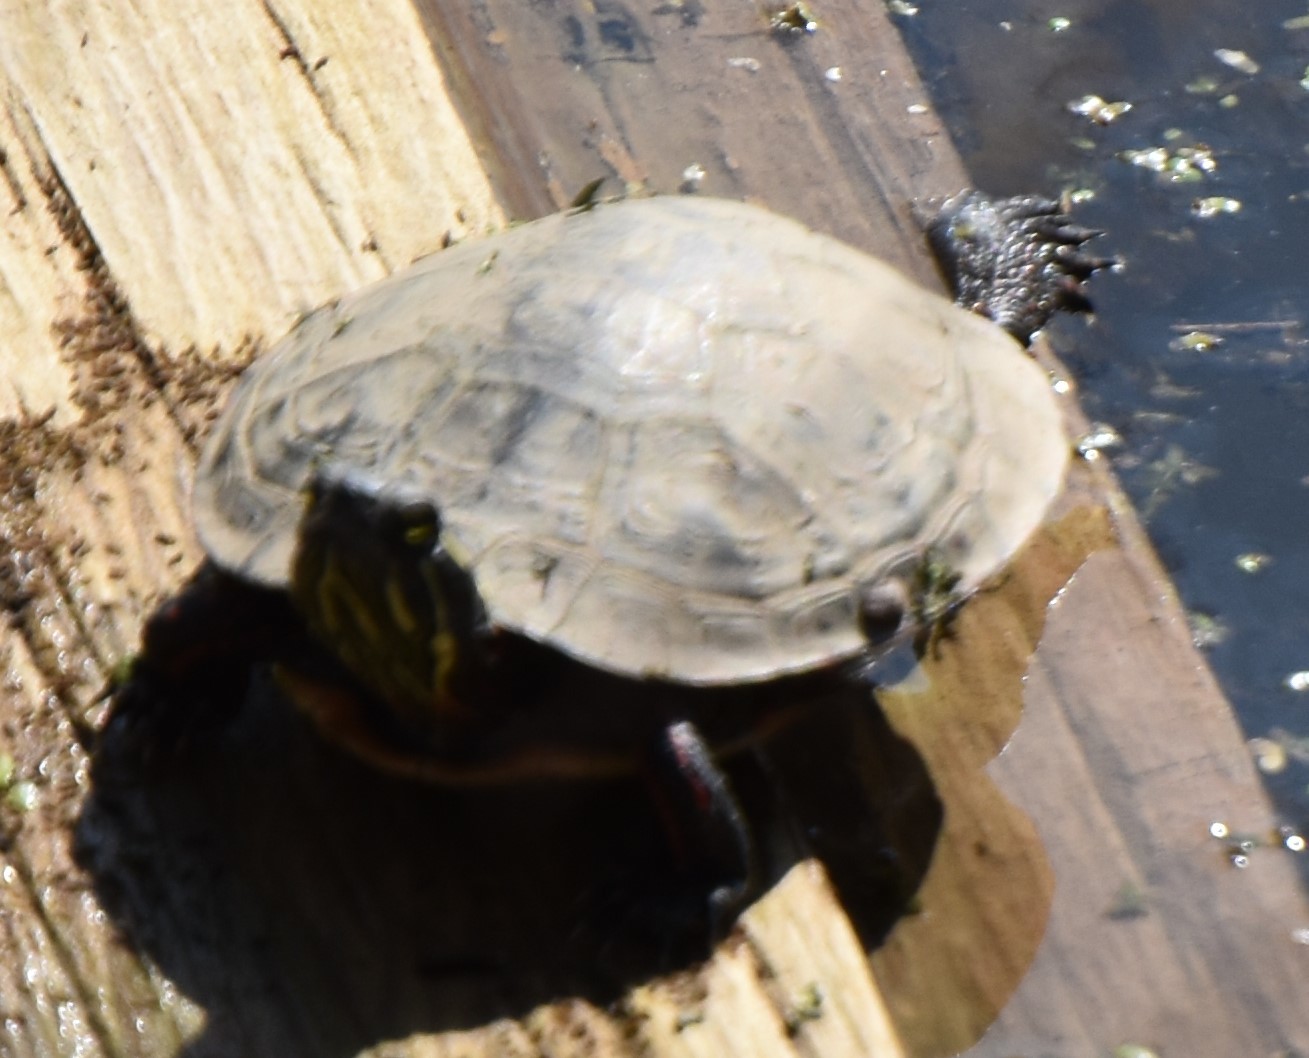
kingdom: Animalia
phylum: Chordata
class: Testudines
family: Emydidae
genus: Chrysemys
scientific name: Chrysemys picta
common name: Painted turtle
